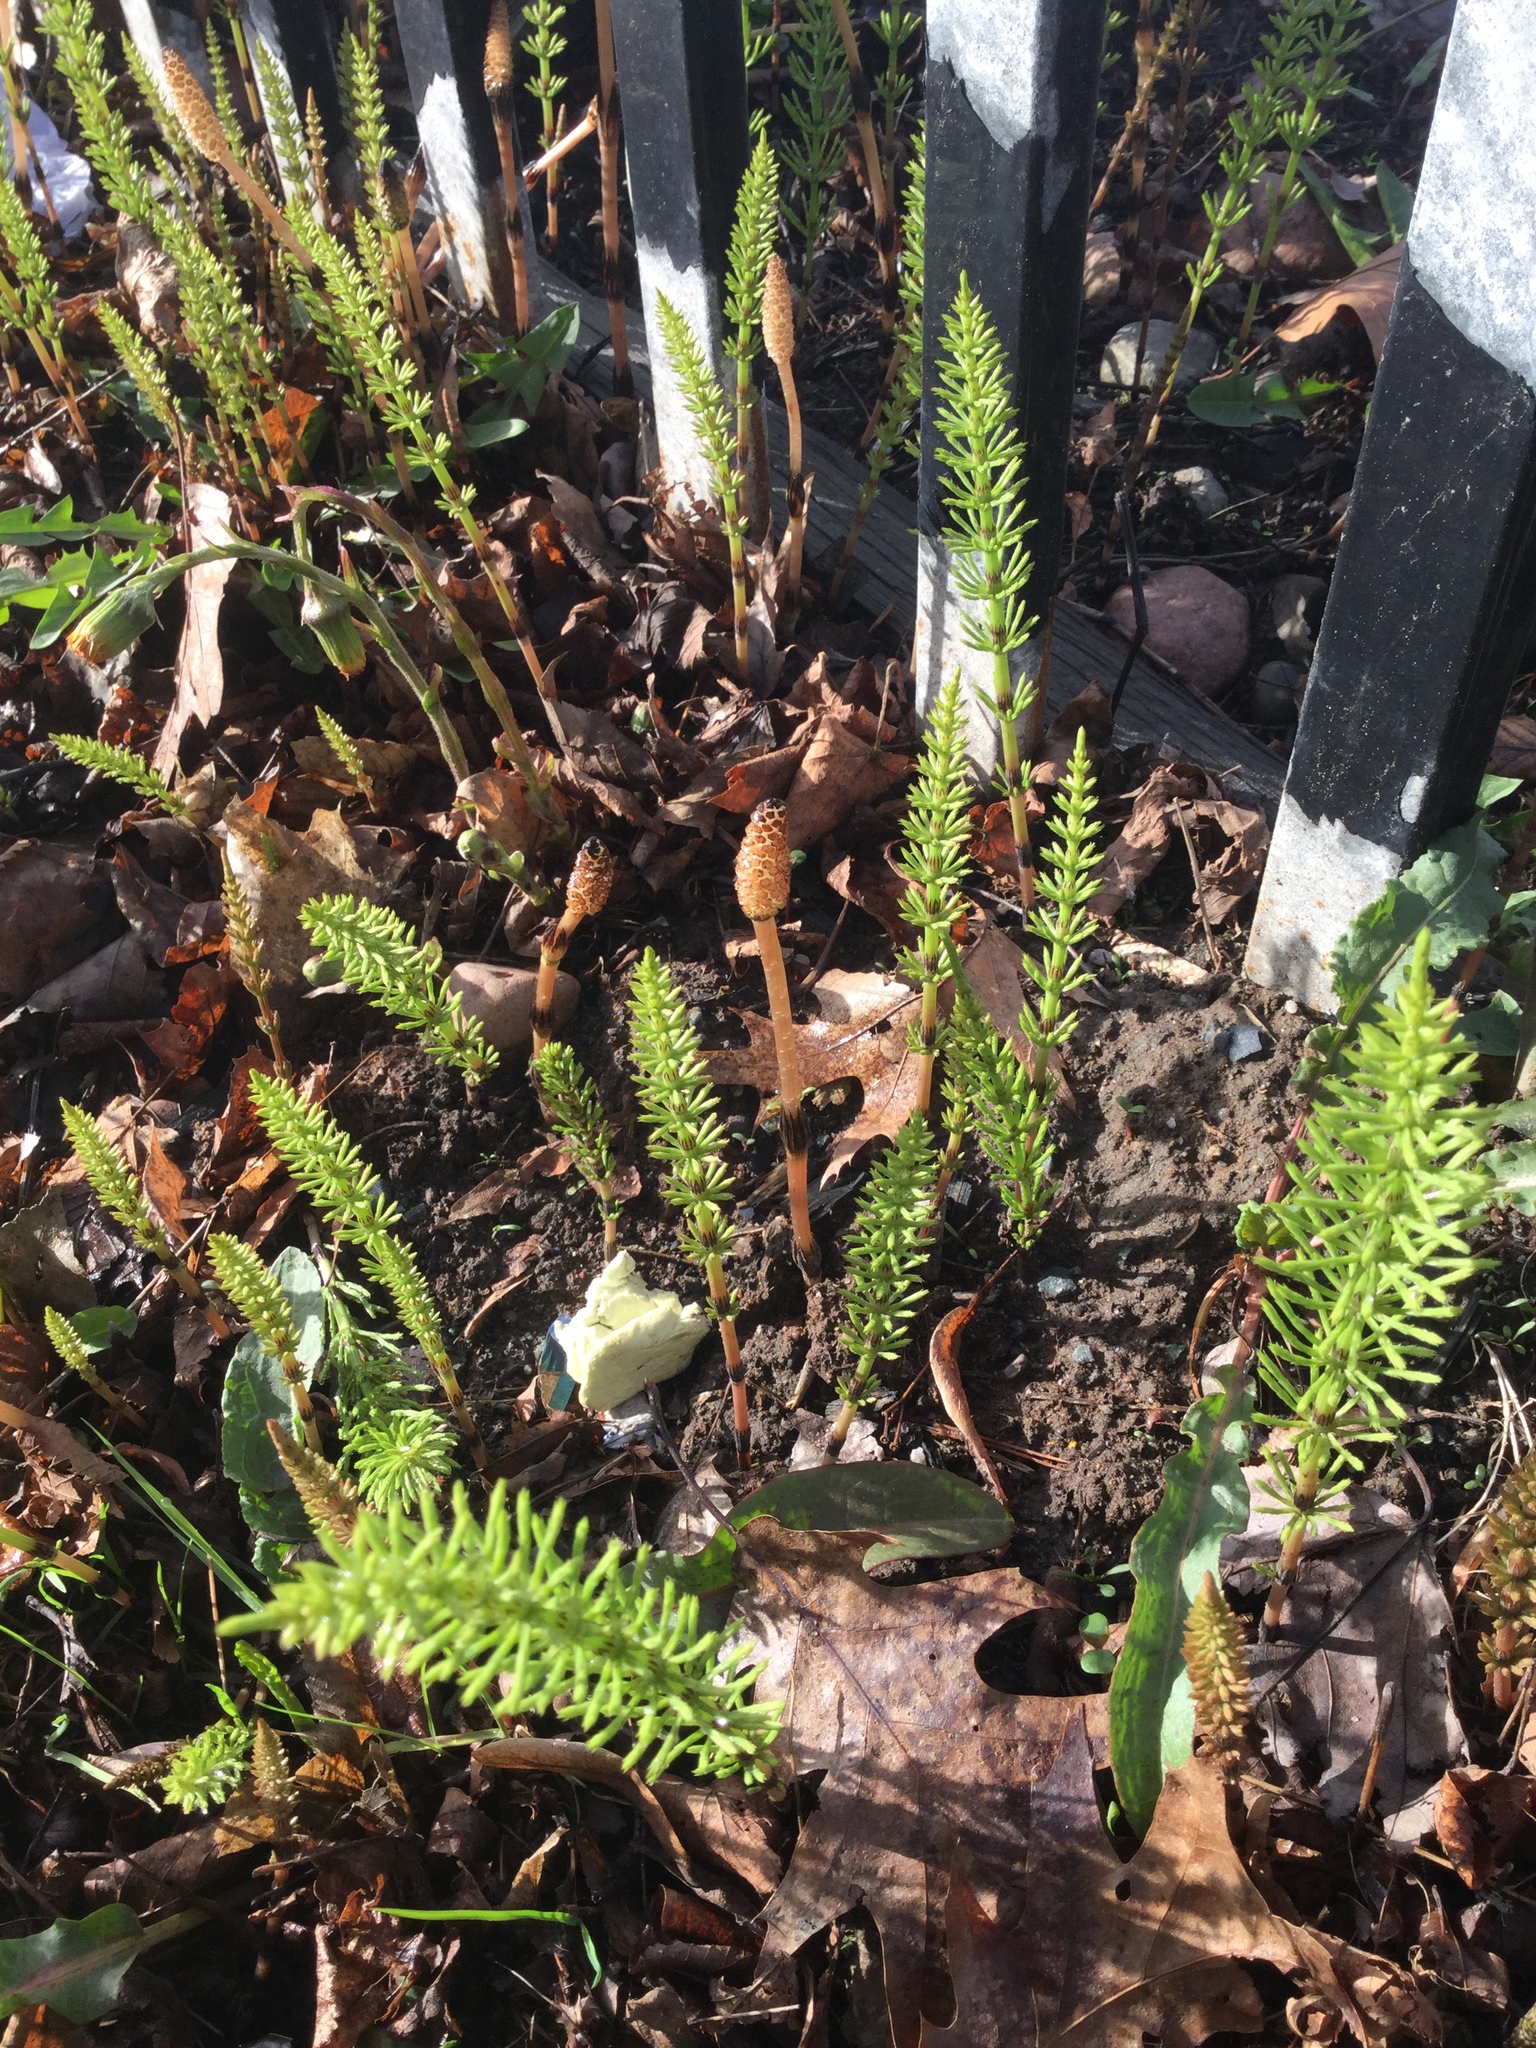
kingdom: Plantae
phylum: Tracheophyta
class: Polypodiopsida
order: Equisetales
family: Equisetaceae
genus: Equisetum
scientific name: Equisetum arvense
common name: Field horsetail
